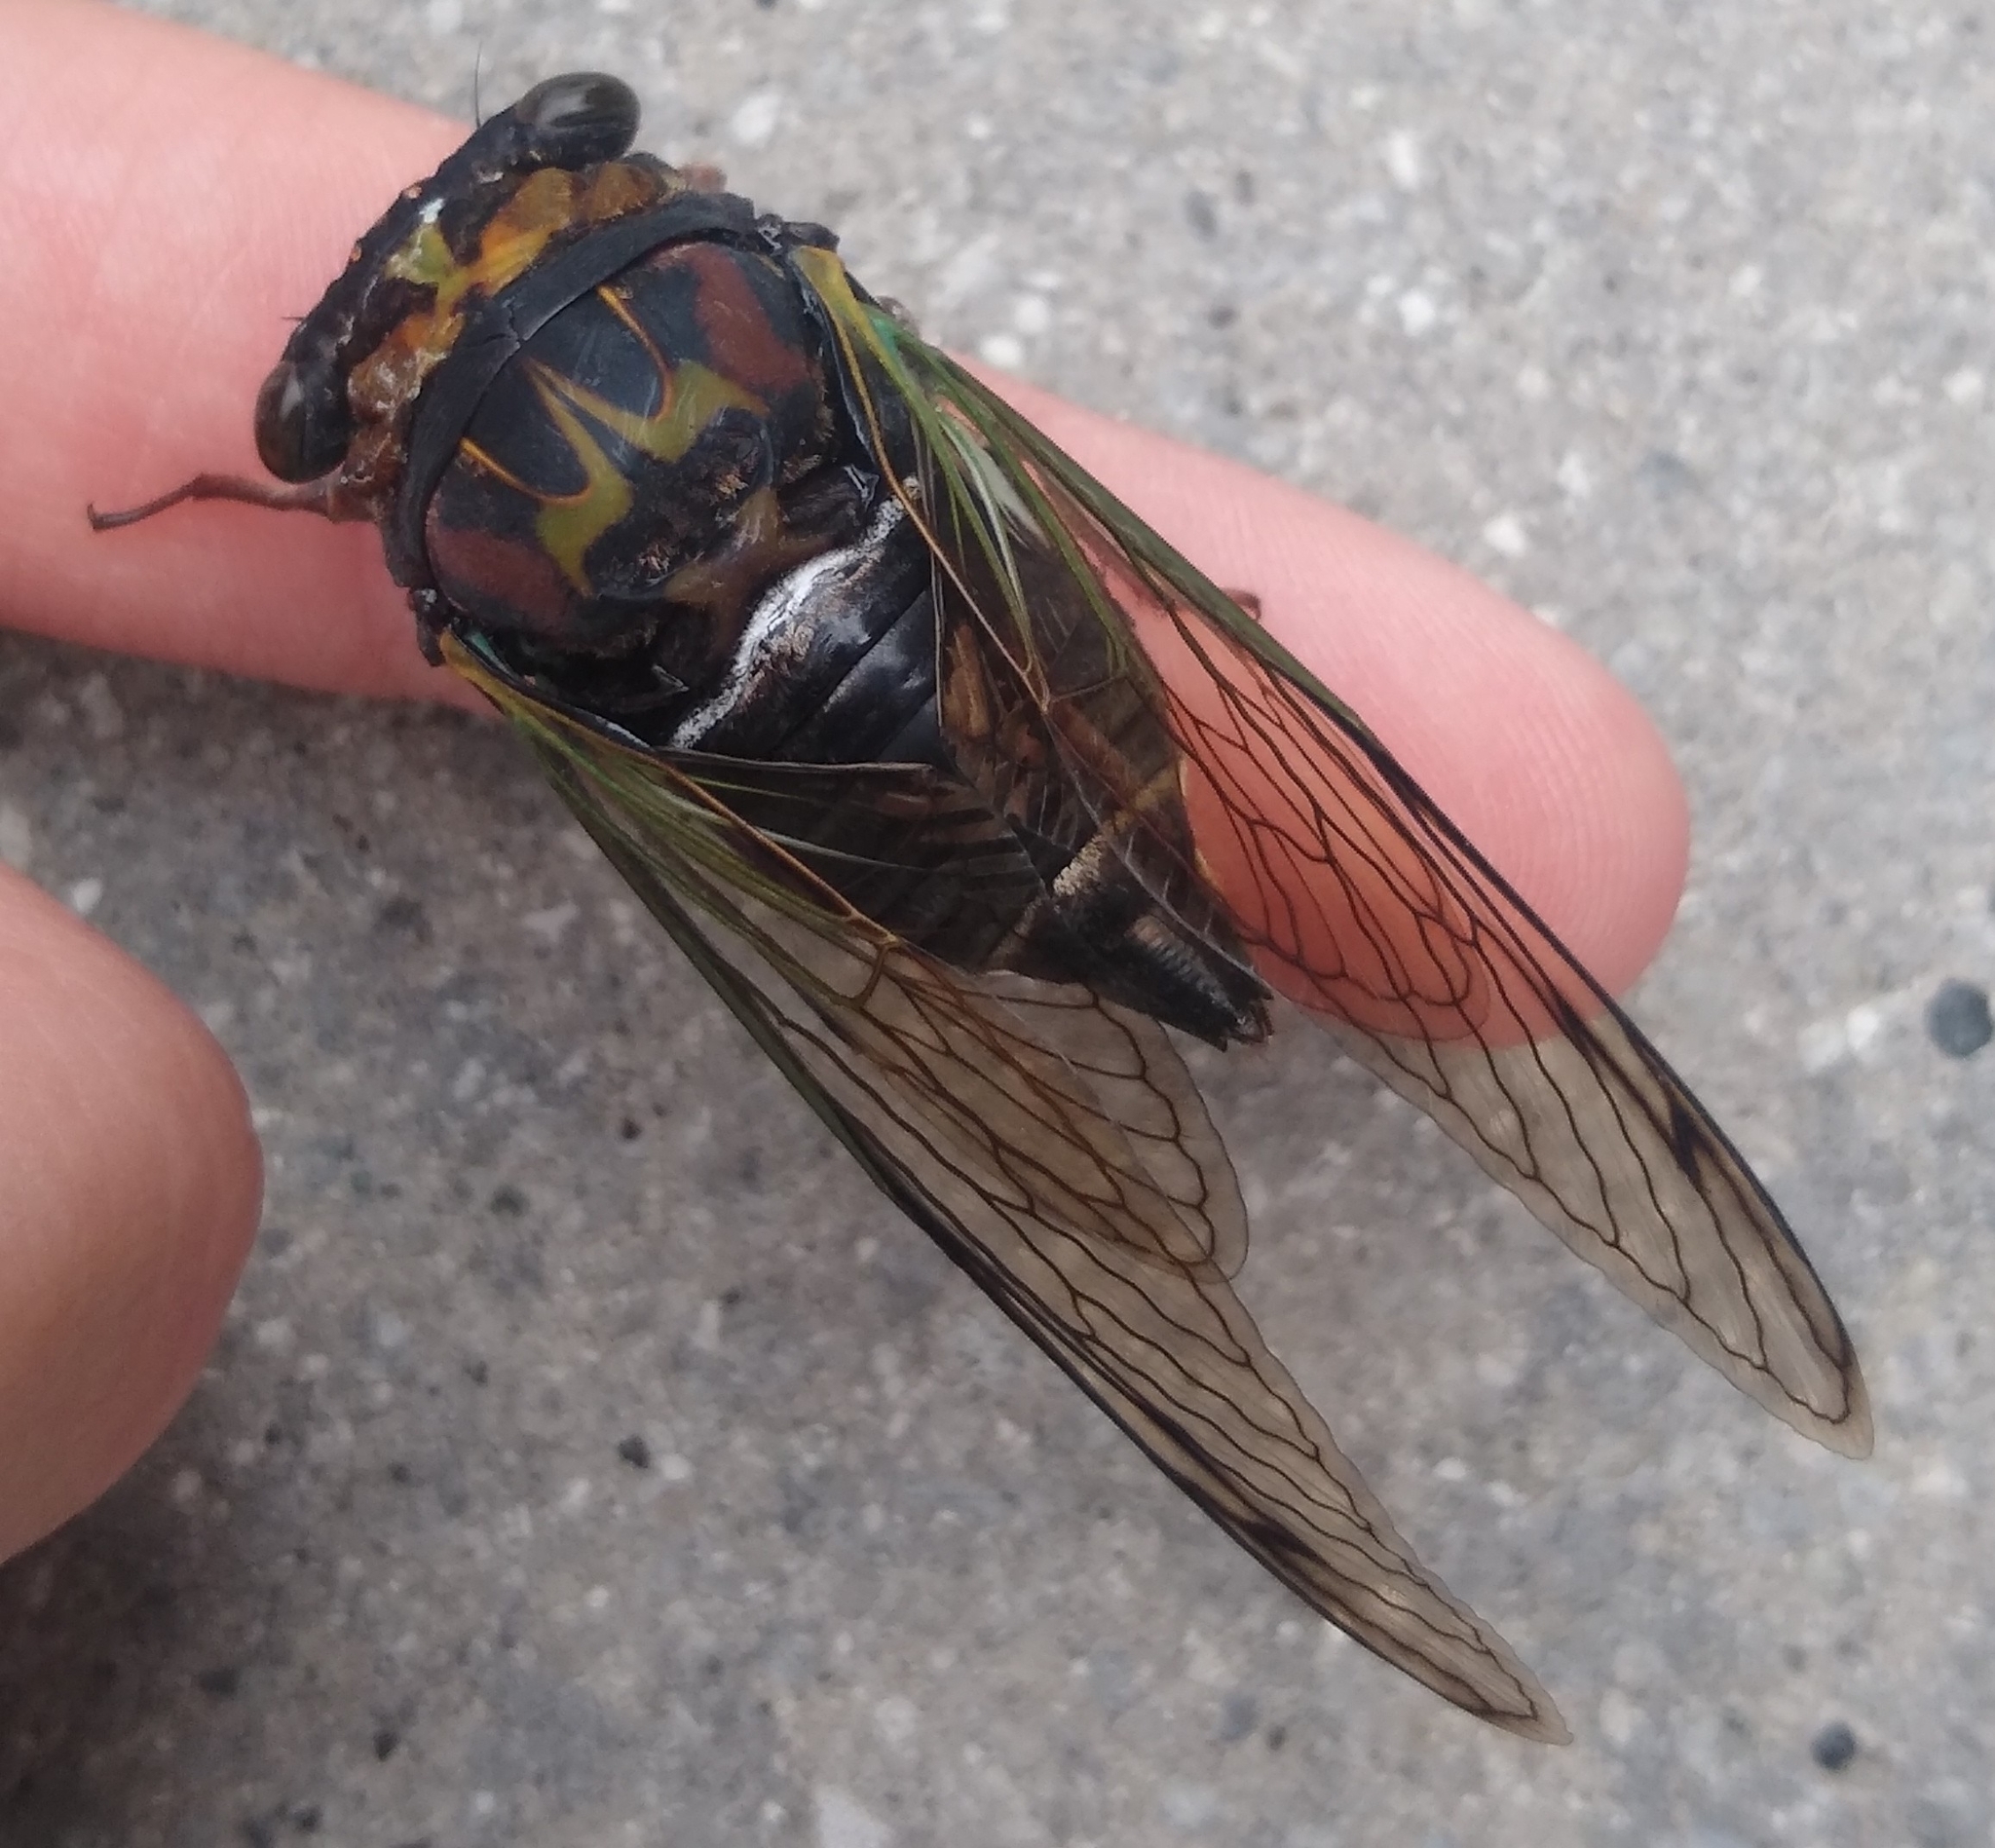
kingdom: Animalia
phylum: Arthropoda
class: Insecta
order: Hemiptera
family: Cicadidae
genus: Neotibicen
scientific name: Neotibicen lyricen
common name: Lyric cicada
